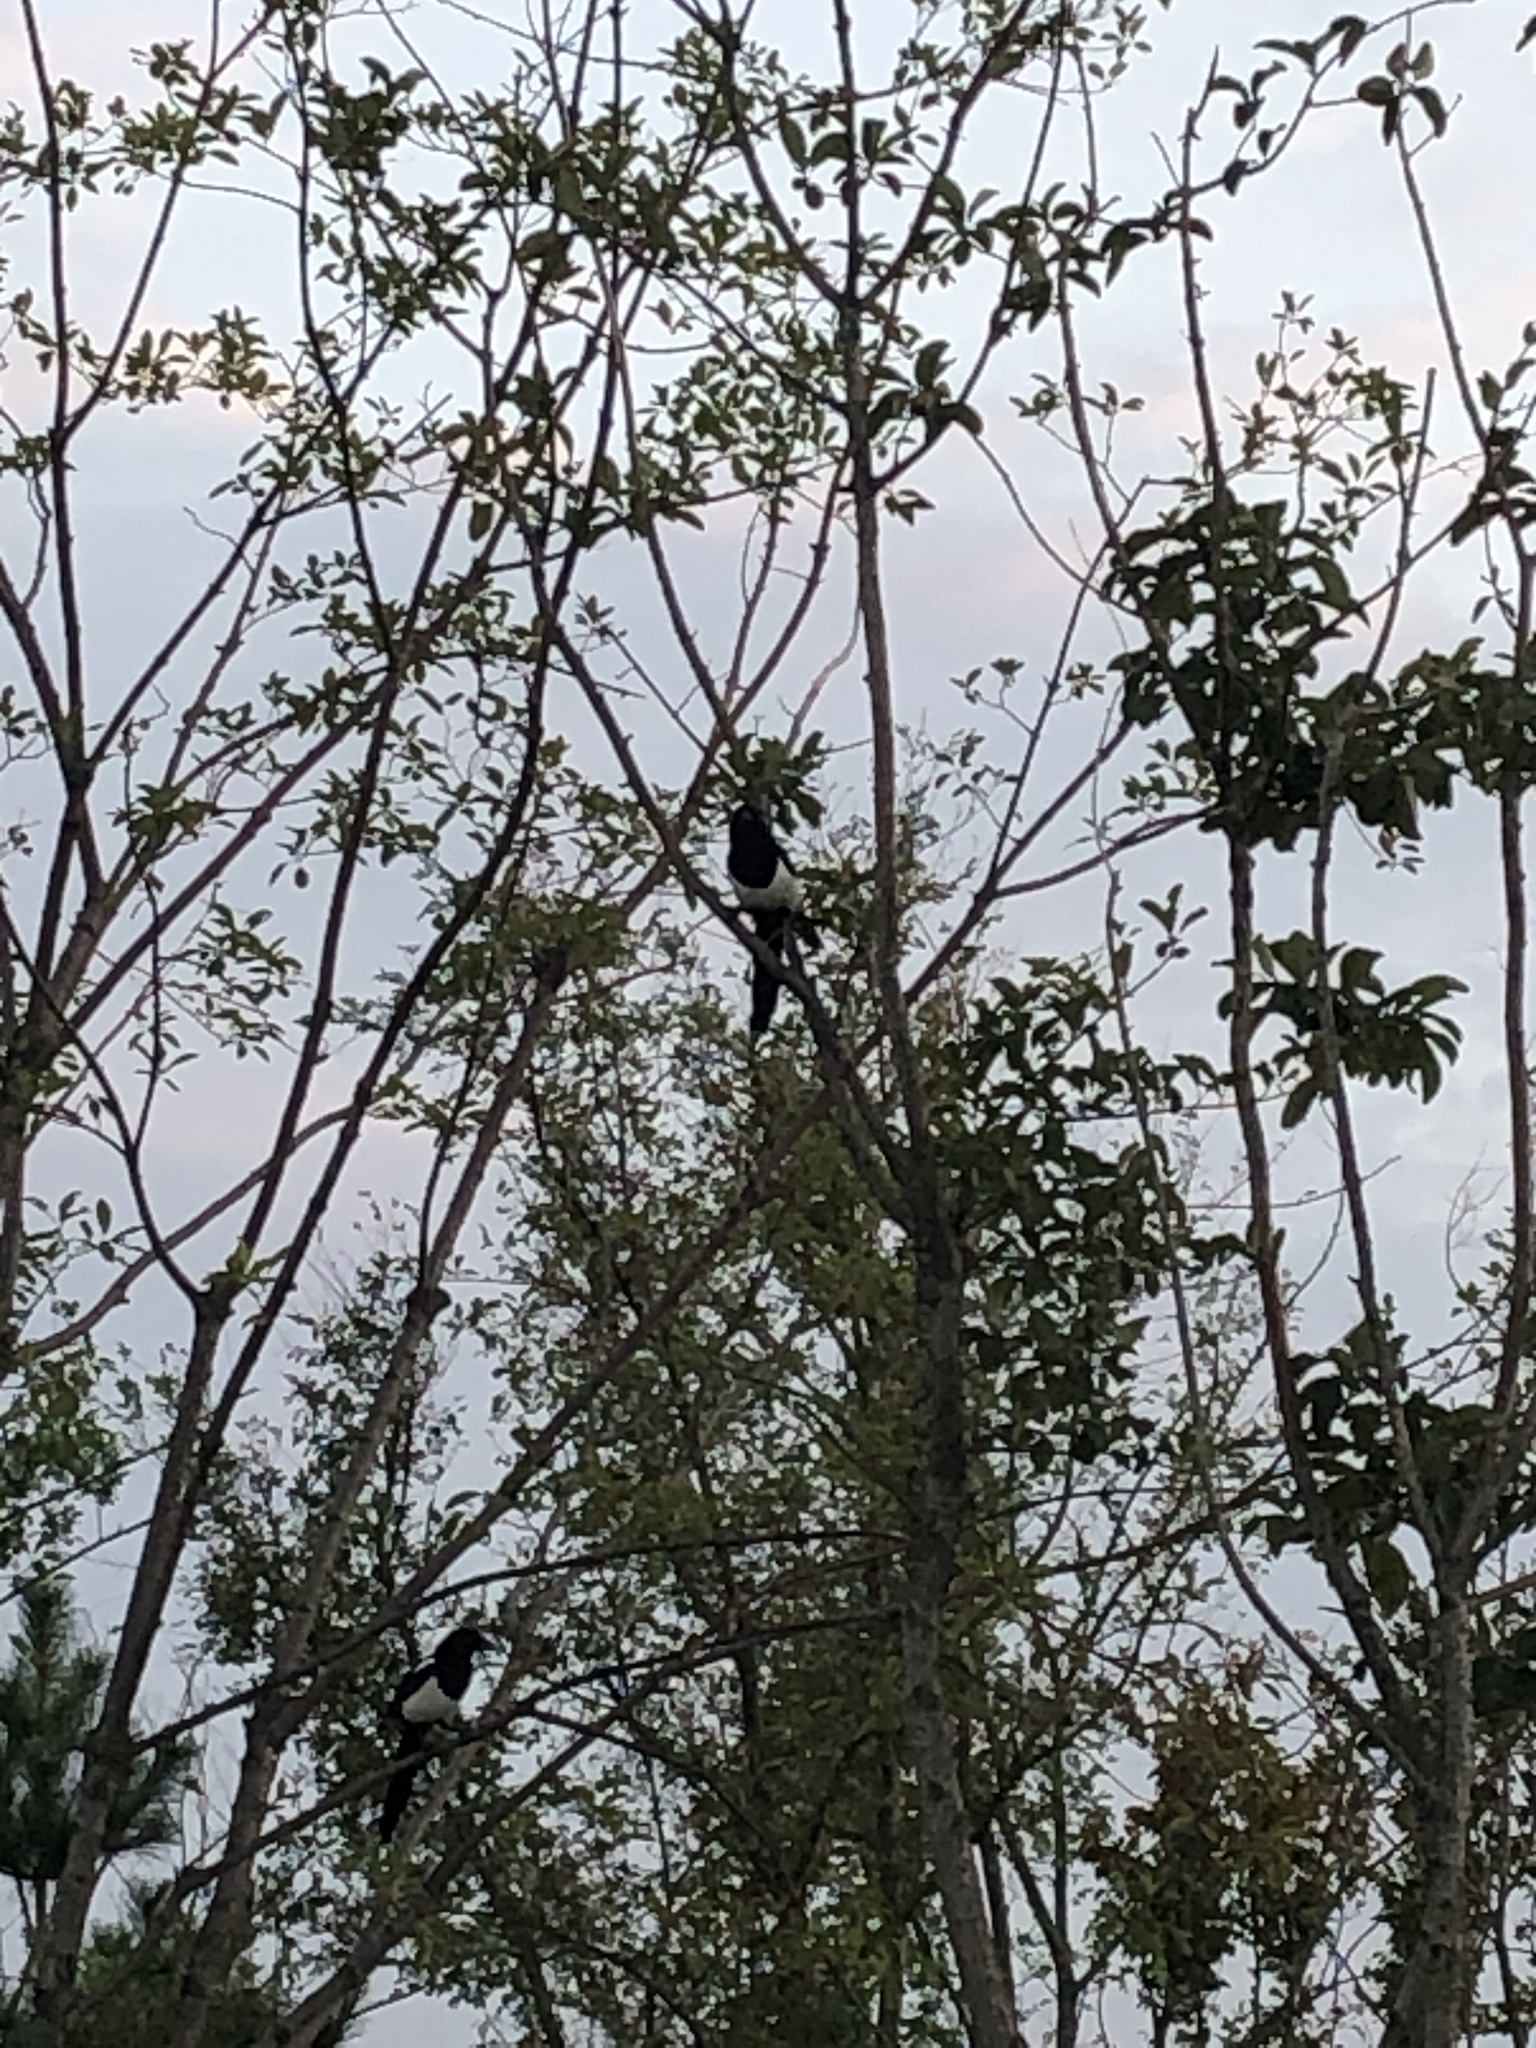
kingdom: Animalia
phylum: Chordata
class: Aves
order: Passeriformes
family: Corvidae
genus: Pica
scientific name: Pica serica
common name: Oriental magpie
